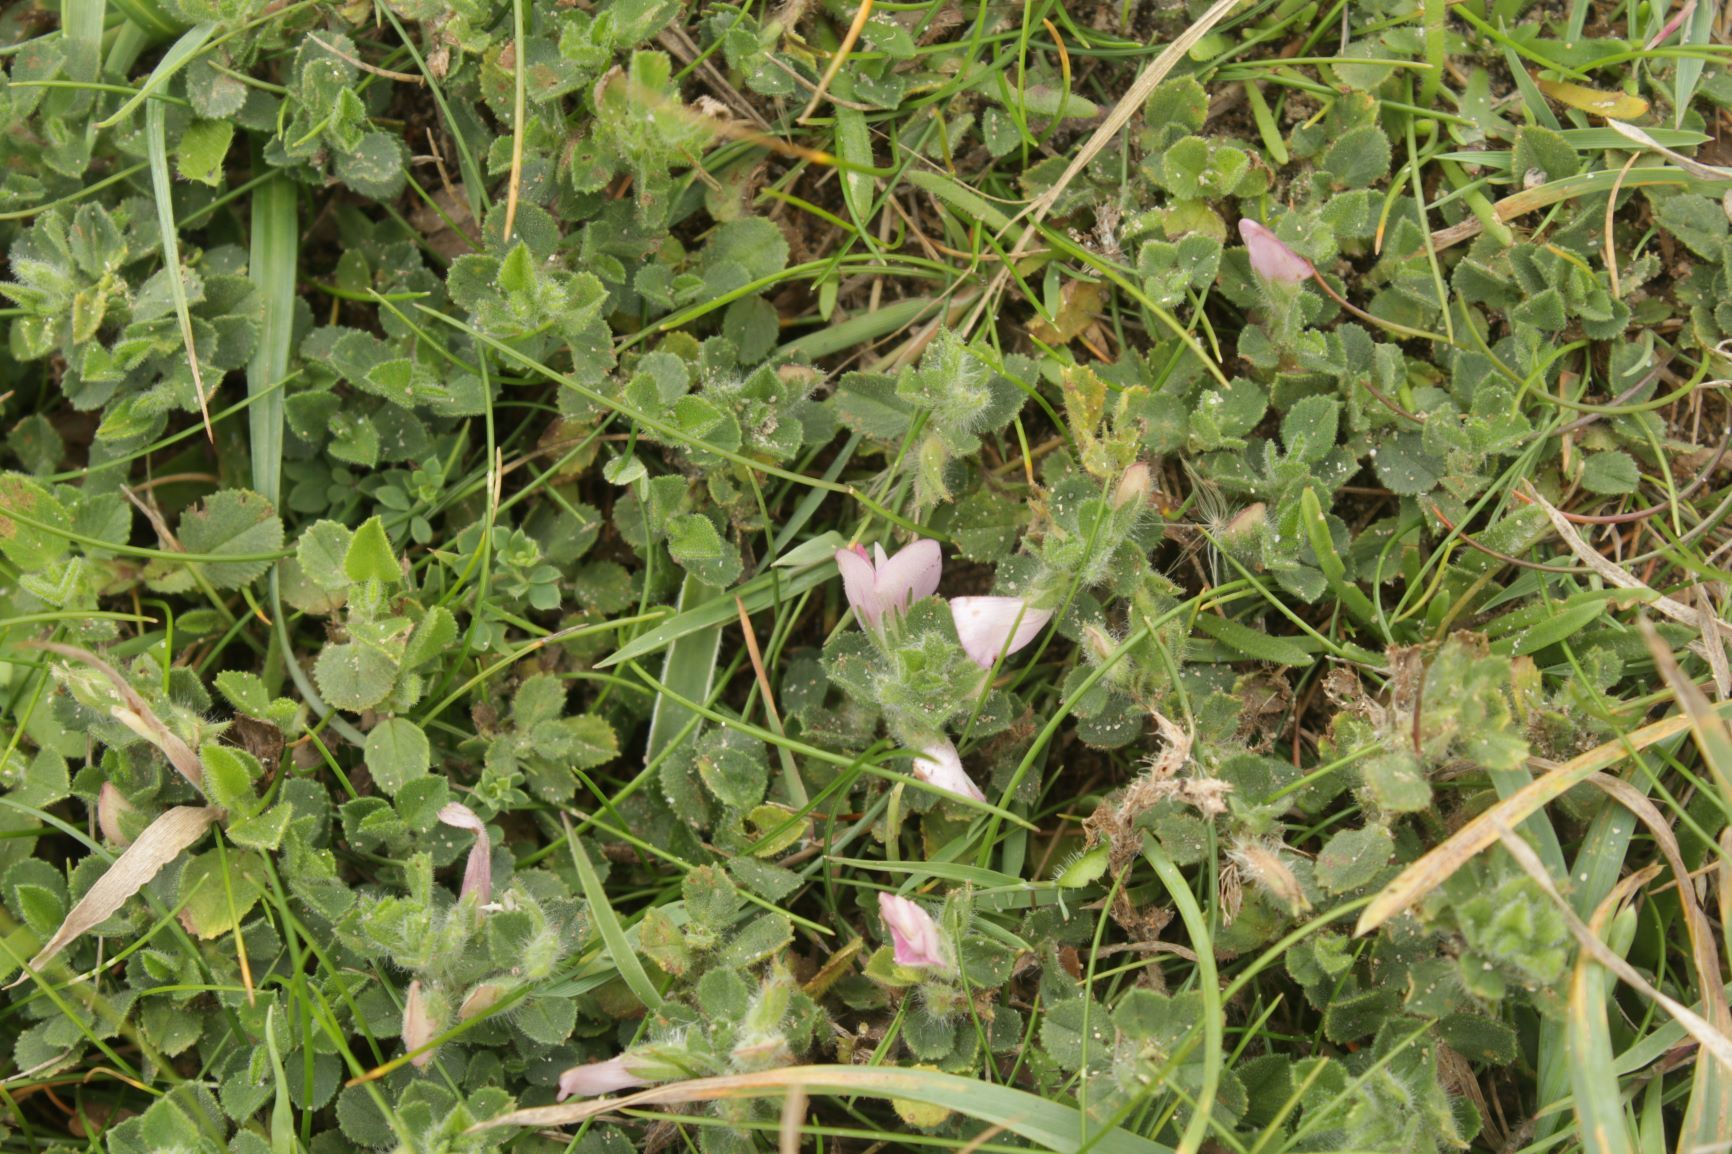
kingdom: Plantae
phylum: Tracheophyta
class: Magnoliopsida
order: Fabales
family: Fabaceae
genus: Ononis
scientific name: Ononis spinosa
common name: Spiny restharrow
